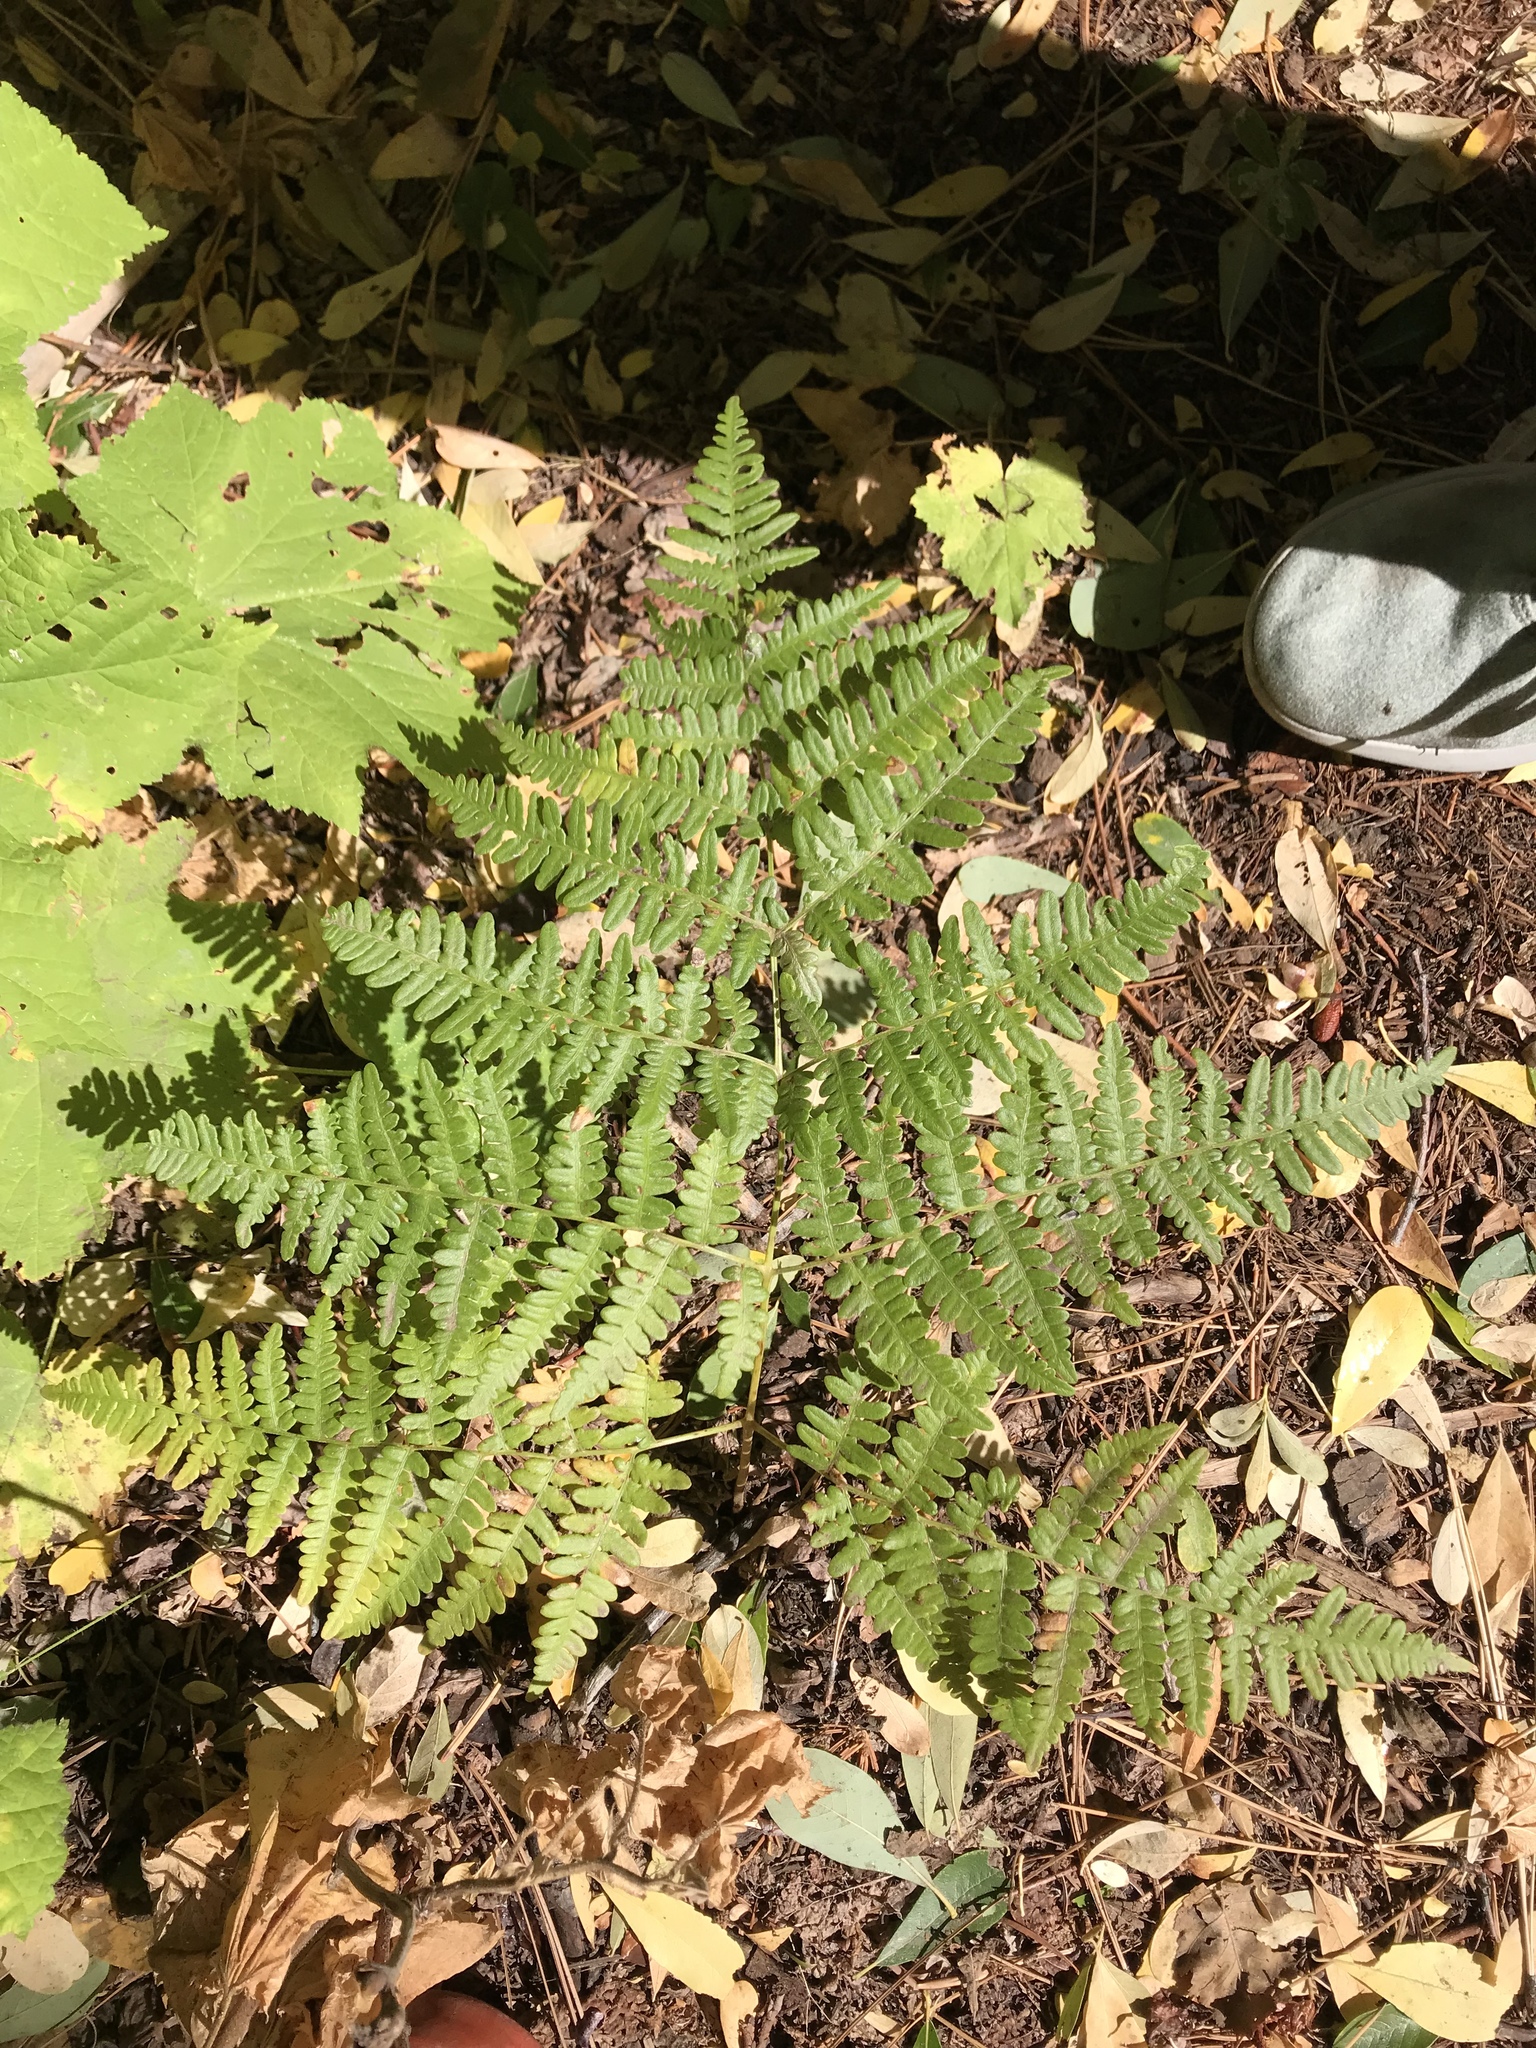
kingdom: Plantae
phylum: Tracheophyta
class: Polypodiopsida
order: Polypodiales
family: Dennstaedtiaceae
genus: Pteridium
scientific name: Pteridium aquilinum
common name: Bracken
